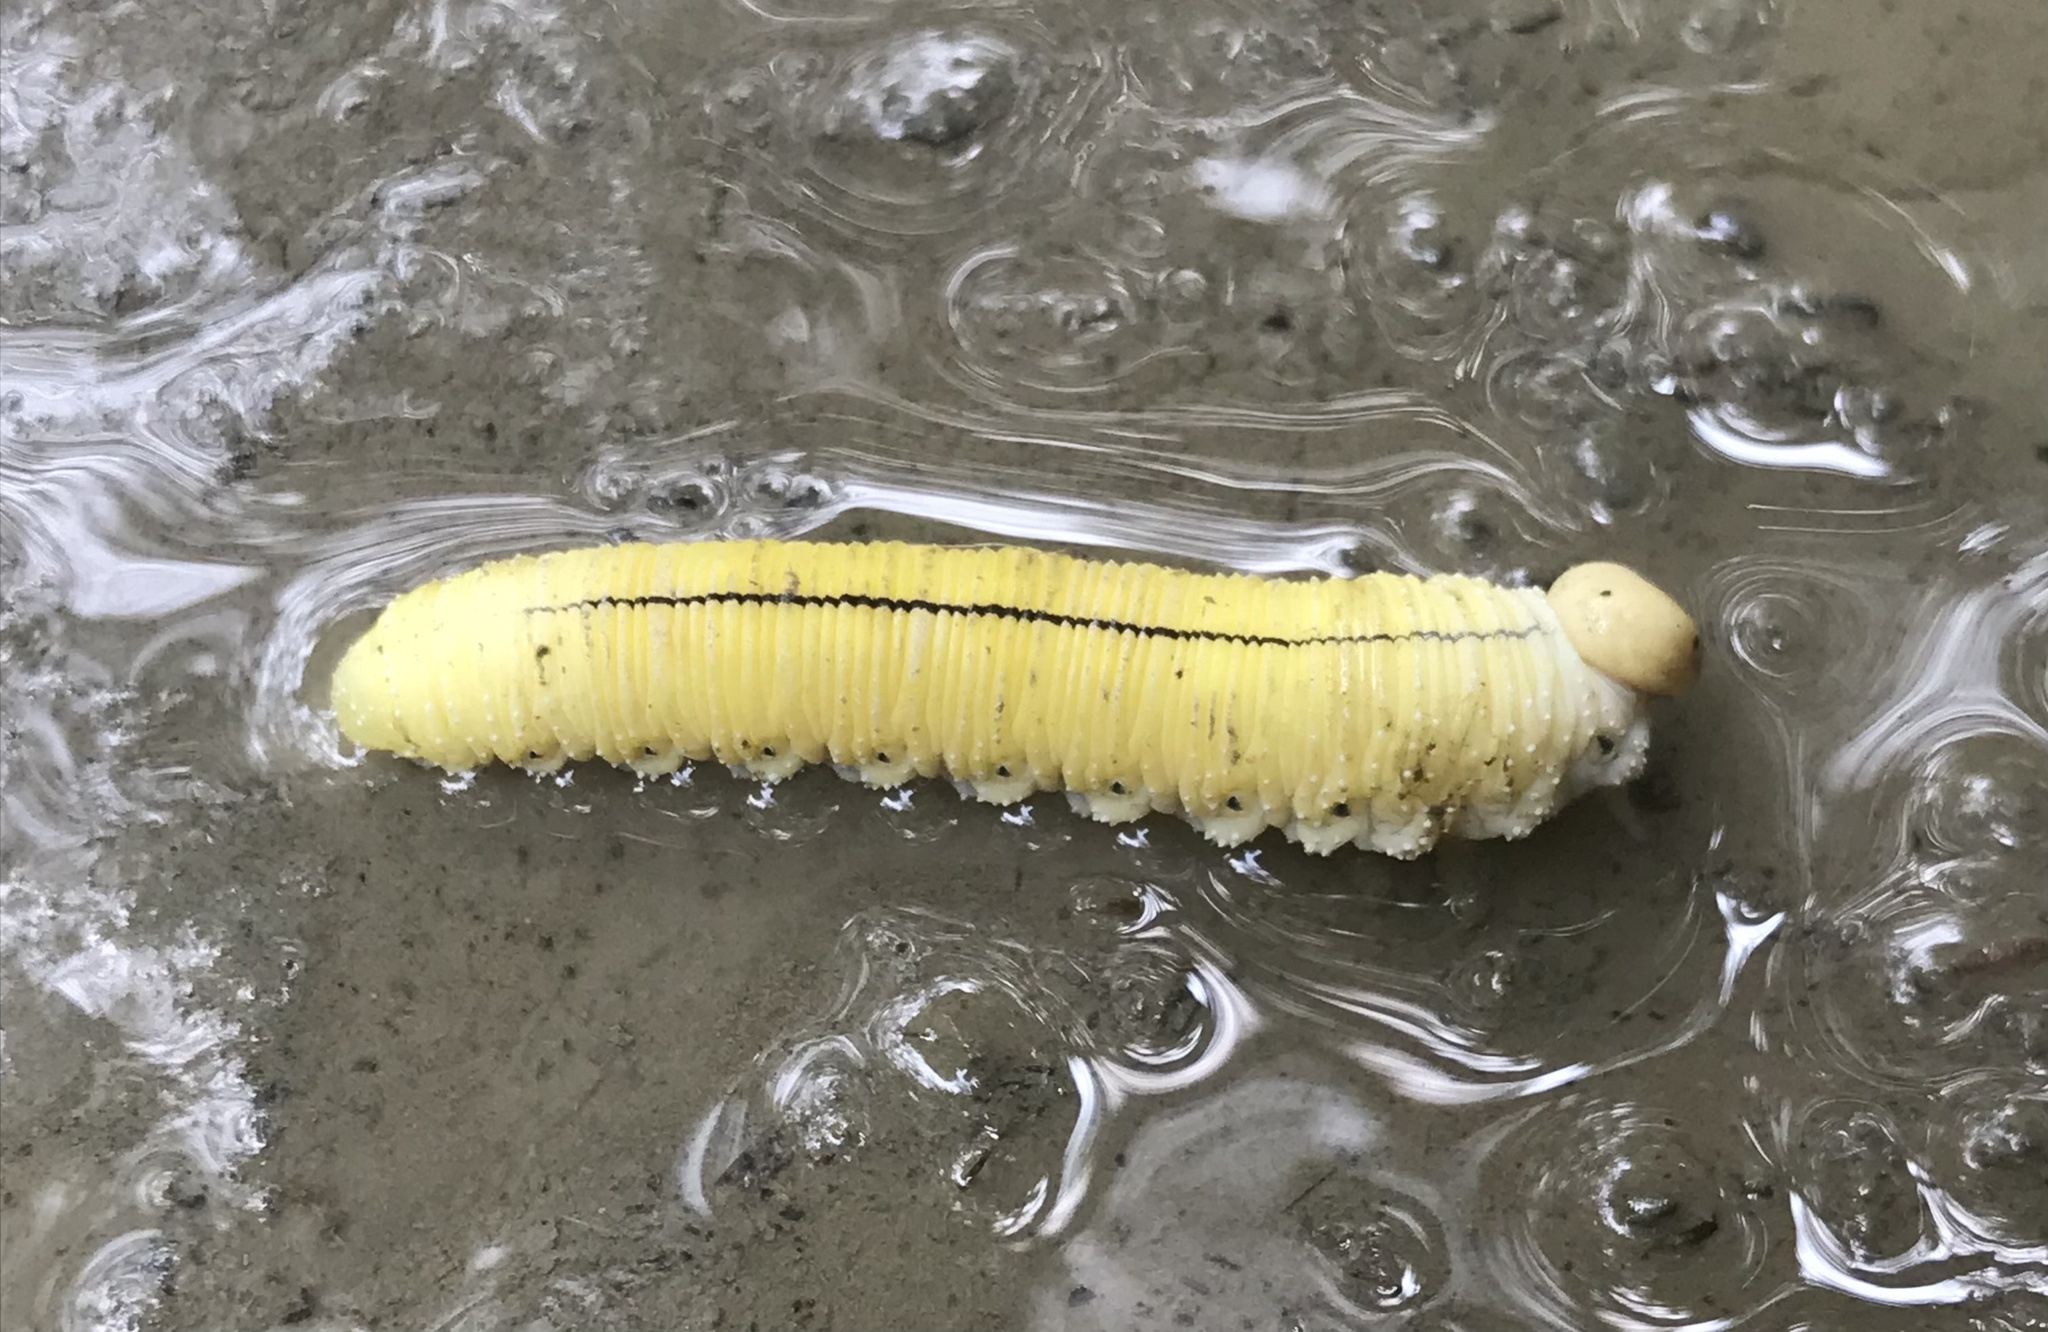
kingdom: Animalia
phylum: Arthropoda
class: Insecta
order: Hymenoptera
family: Cimbicidae
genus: Cimbex
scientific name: Cimbex americana
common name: Elm sawfly
